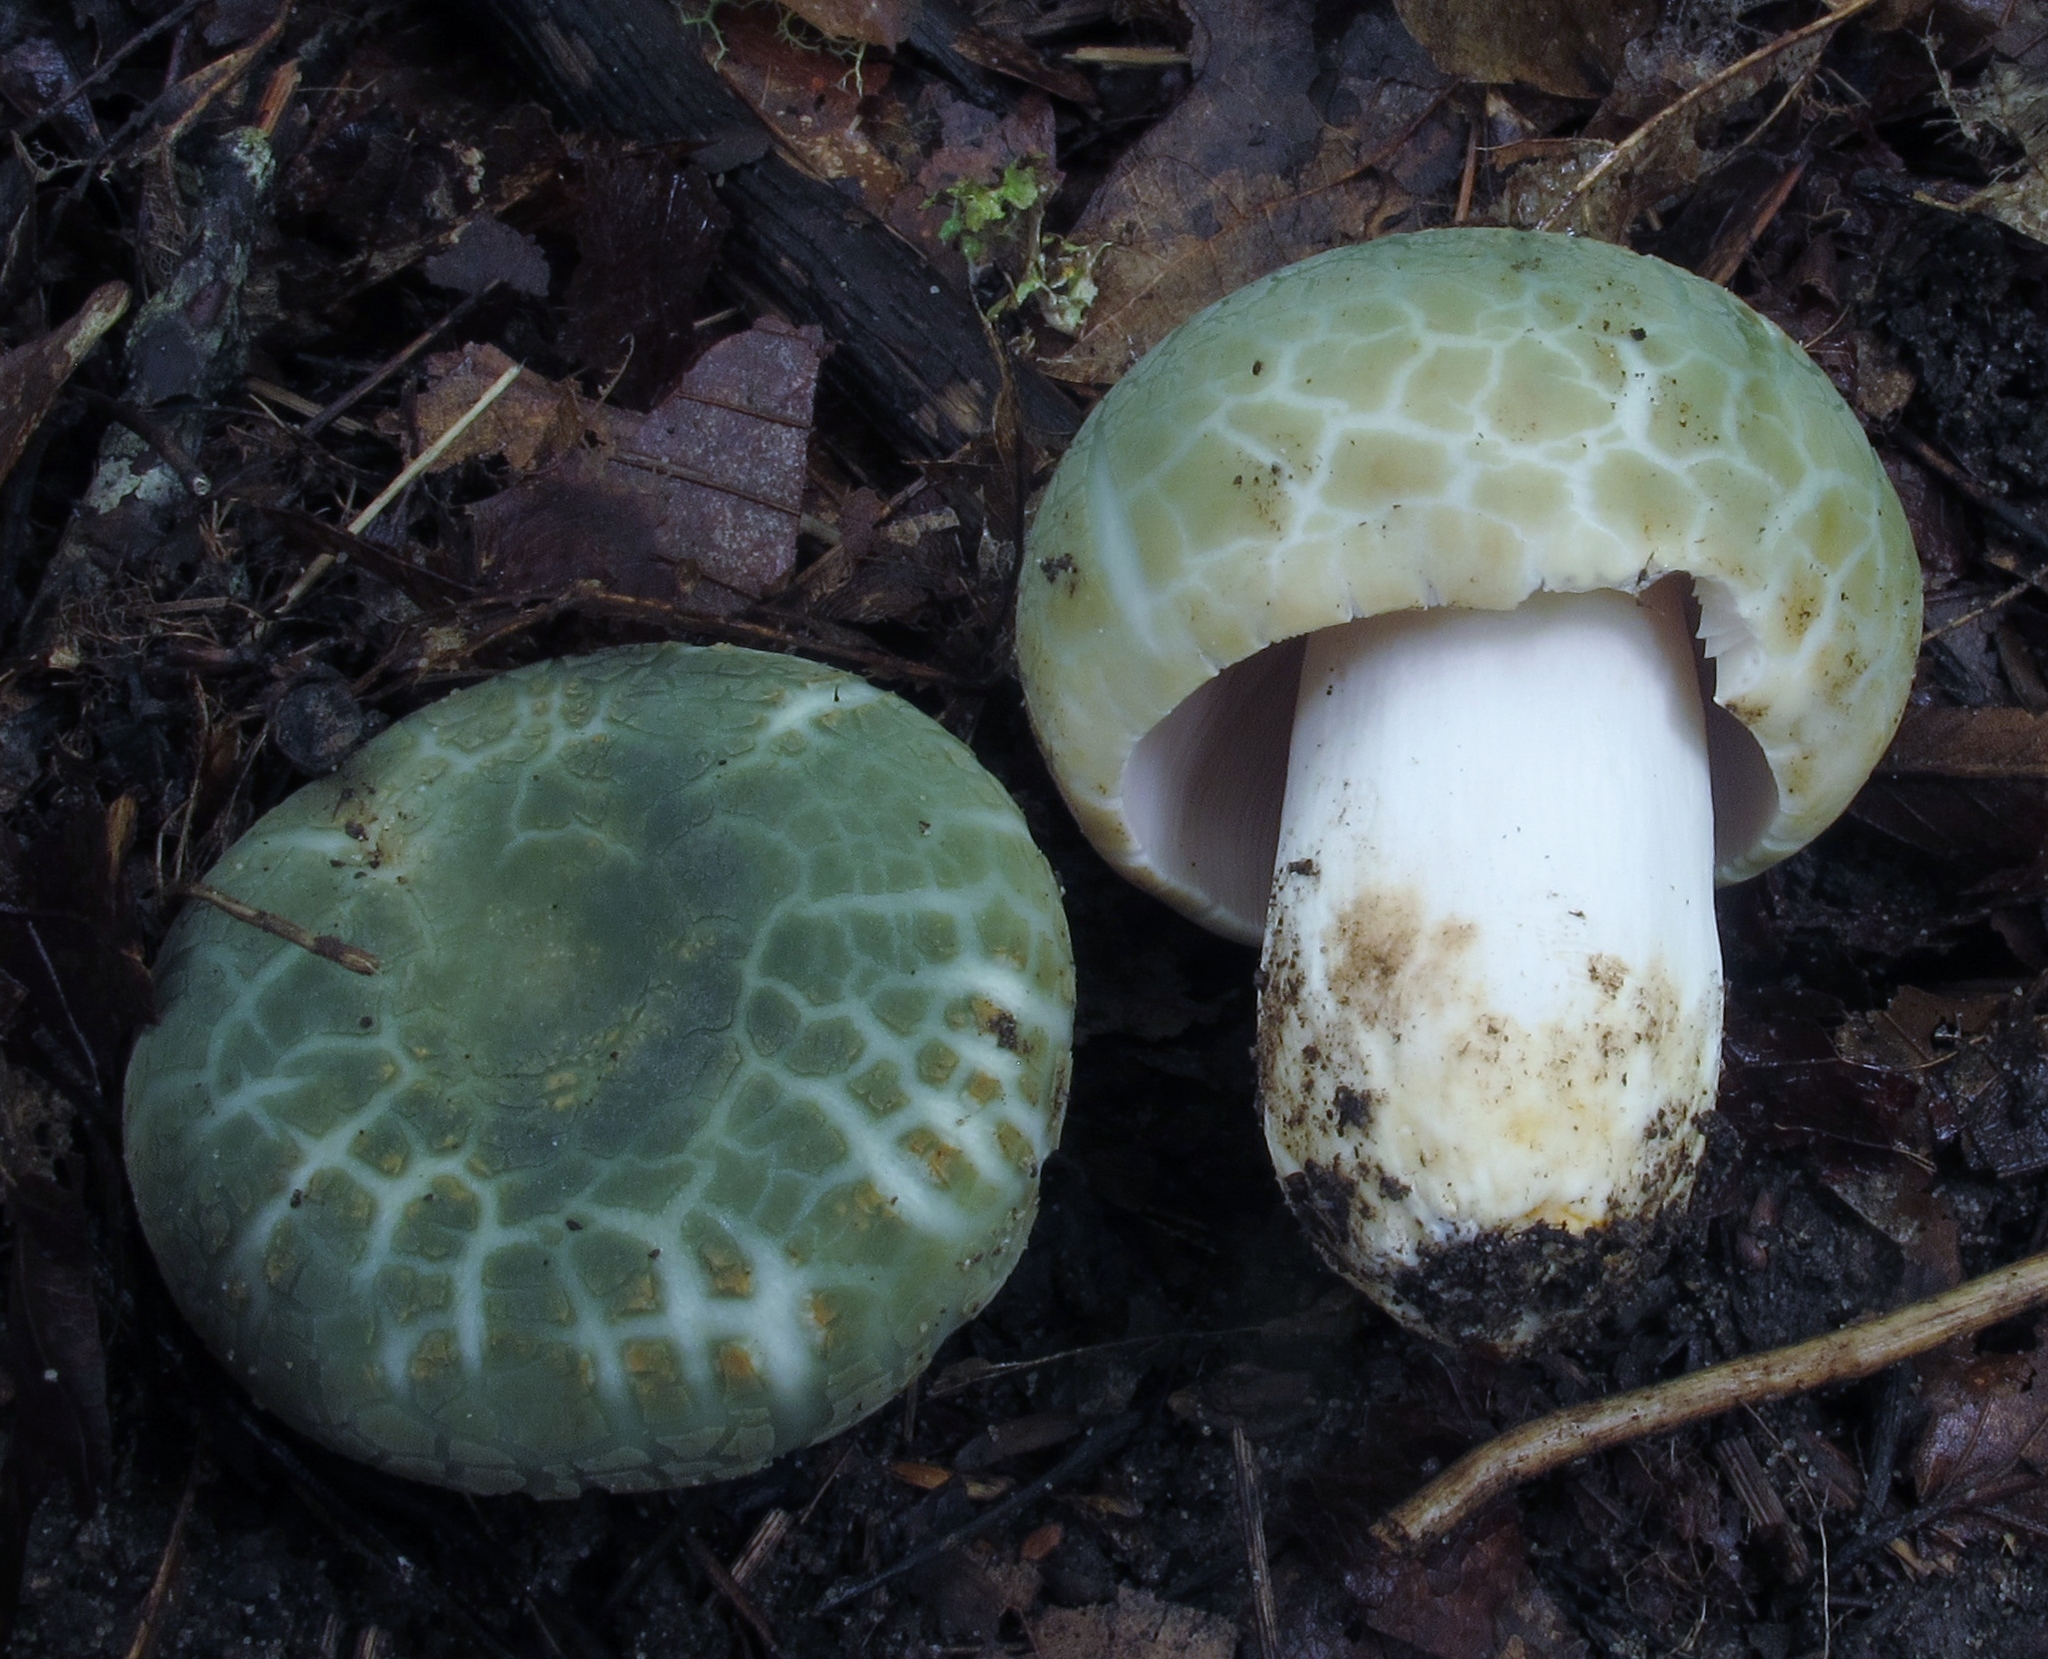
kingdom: Fungi
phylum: Basidiomycota
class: Agaricomycetes
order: Russulales
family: Russulaceae
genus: Russula
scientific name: Russula parvovirescens
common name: Blue-green cracking russula
